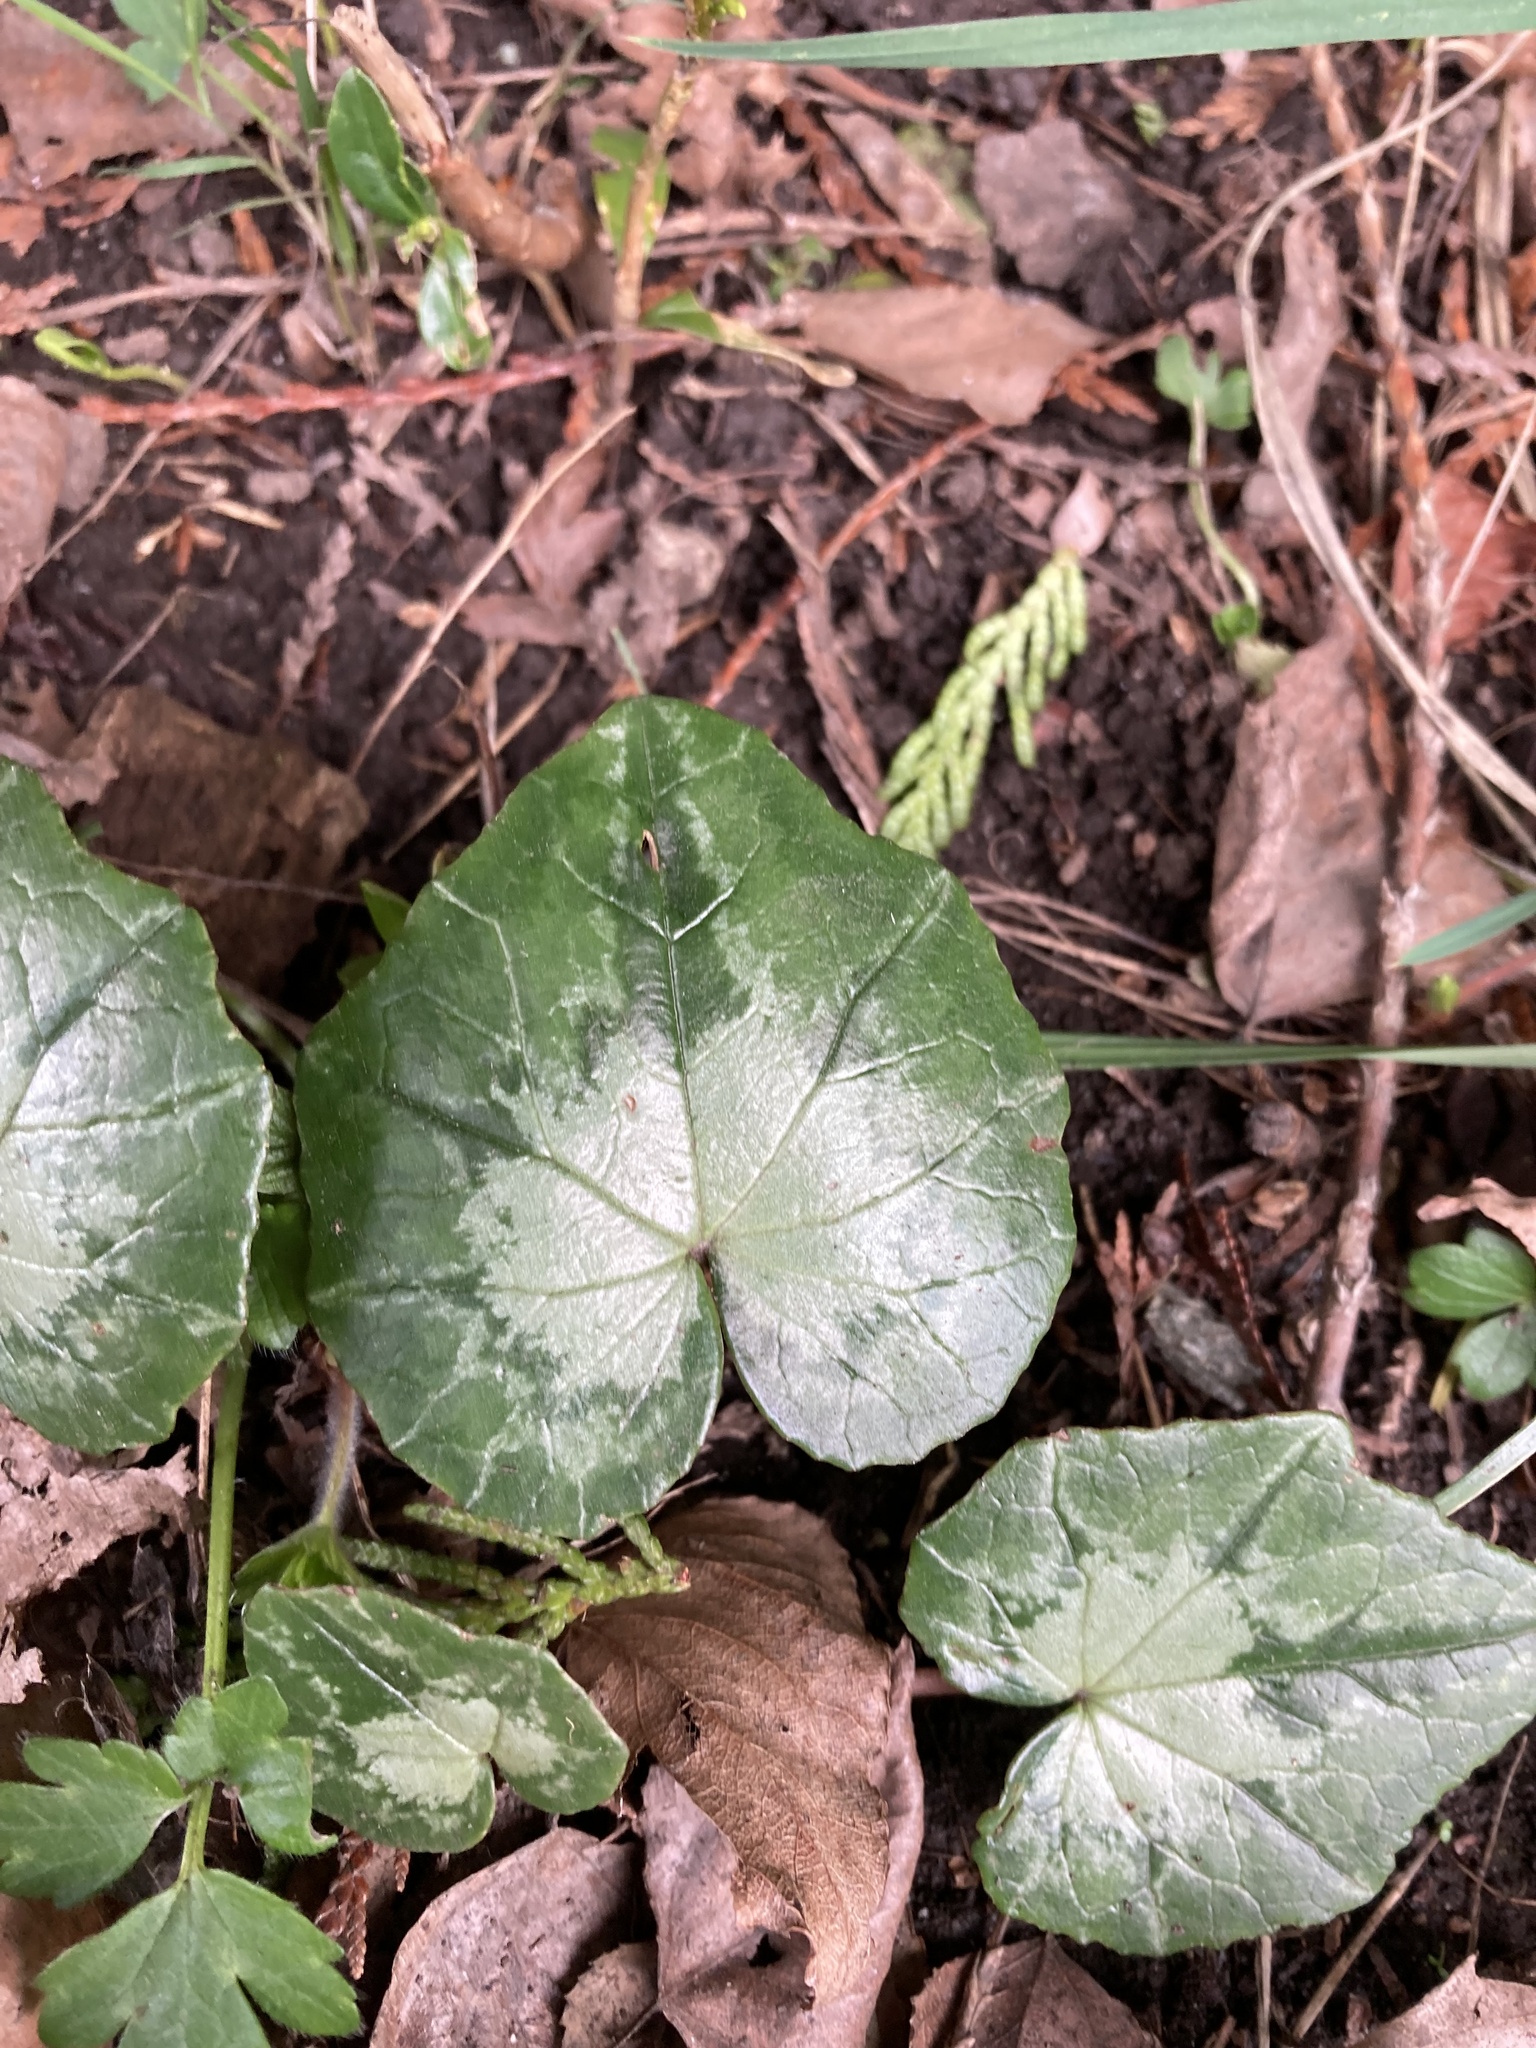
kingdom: Plantae
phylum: Tracheophyta
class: Magnoliopsida
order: Ericales
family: Primulaceae
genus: Cyclamen
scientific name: Cyclamen hederifolium
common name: Sowbread
